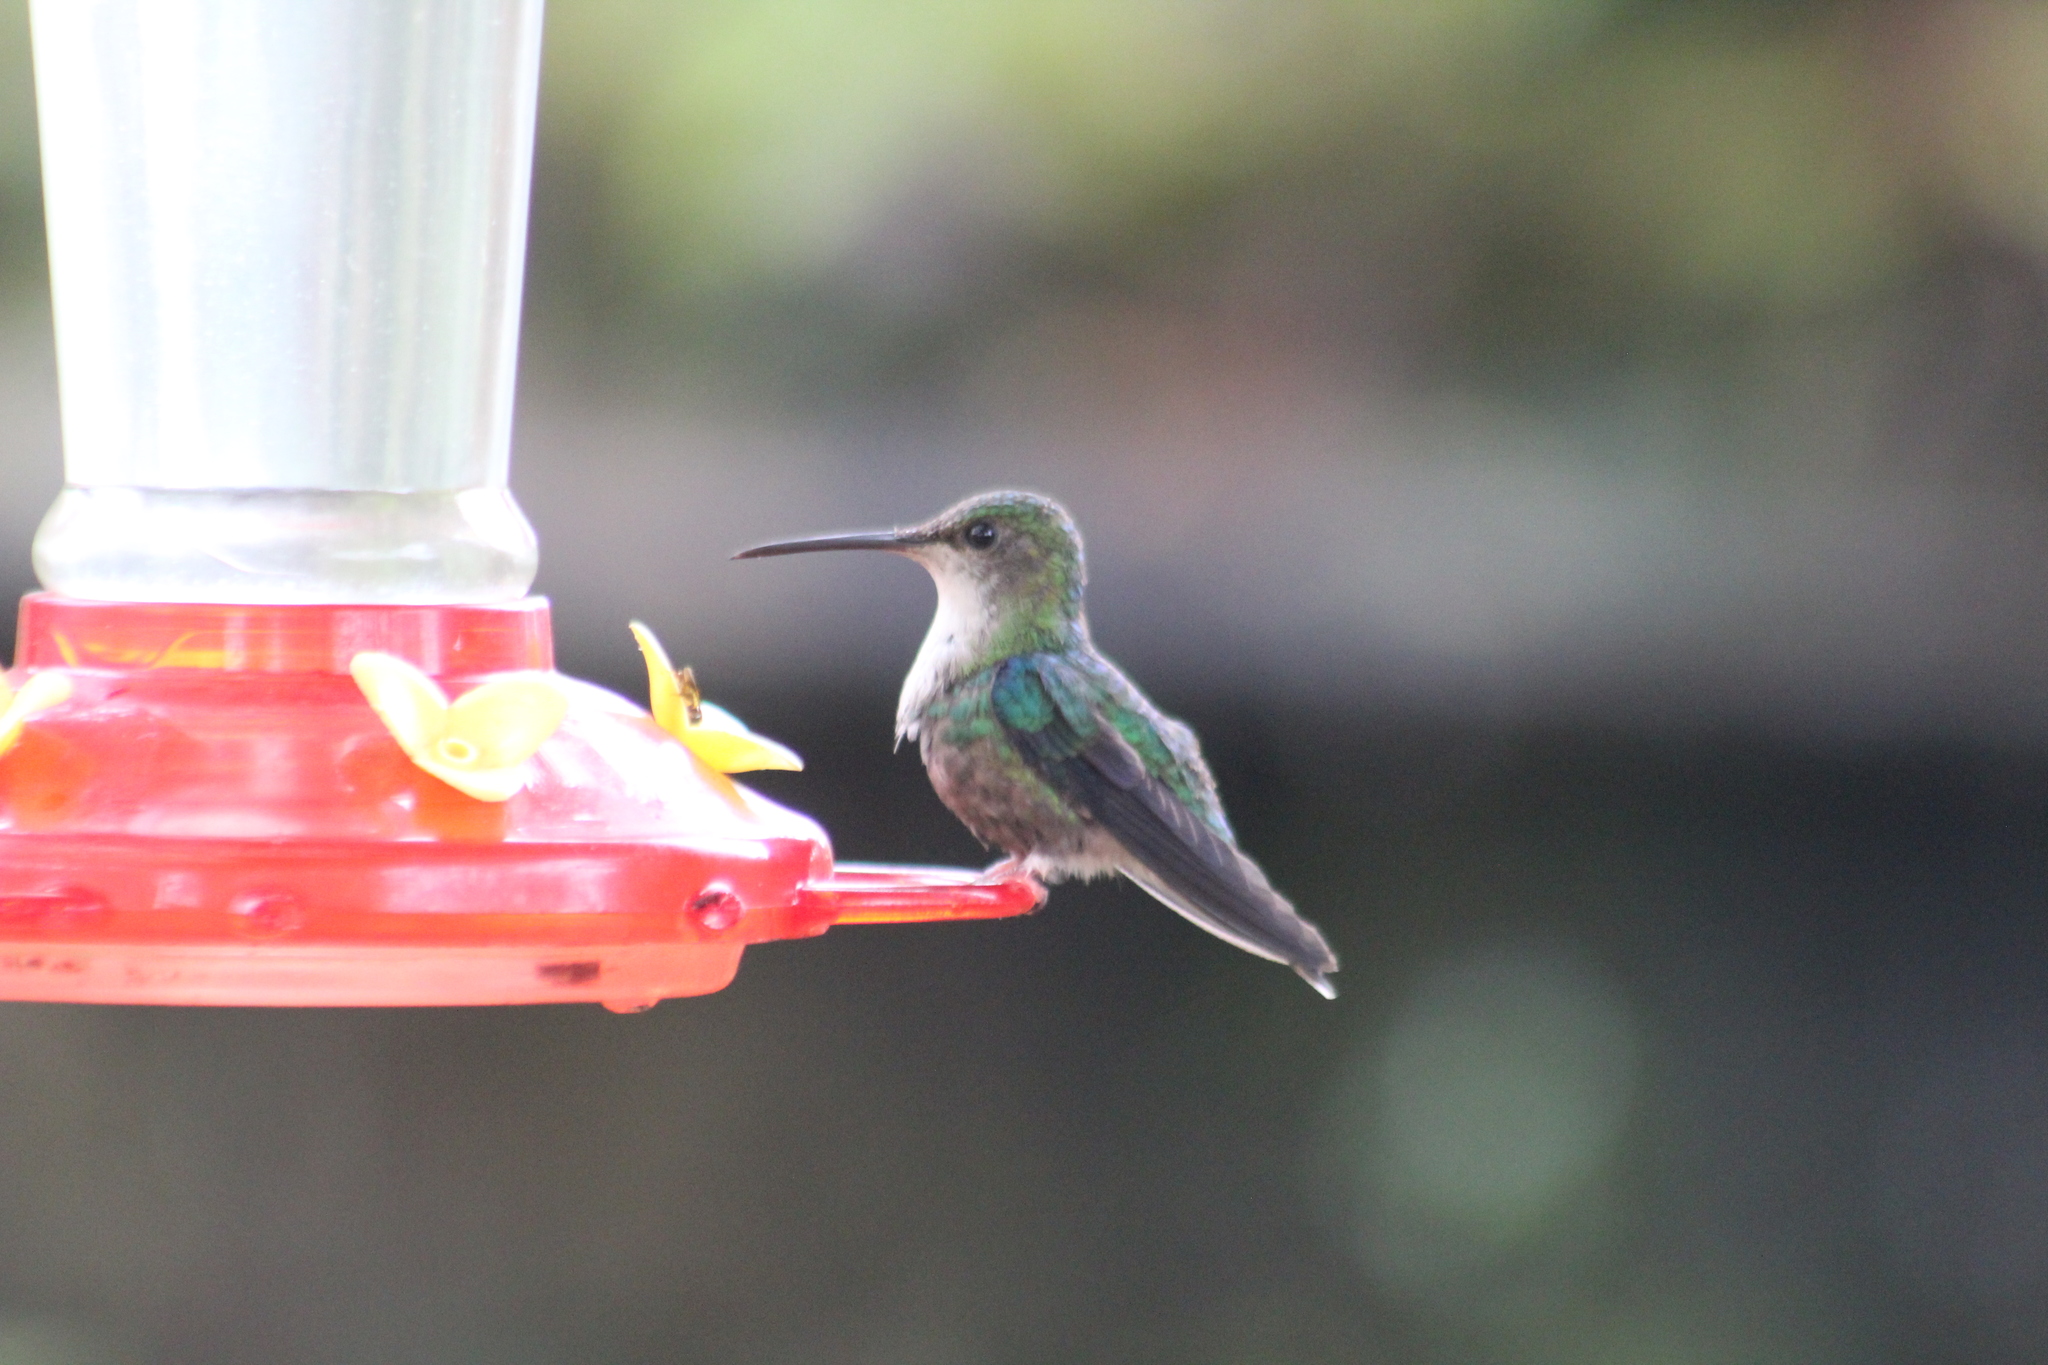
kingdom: Animalia
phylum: Chordata
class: Aves
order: Apodiformes
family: Trochilidae
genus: Thalurania
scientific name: Thalurania colombica
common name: Crowned woodnymph
